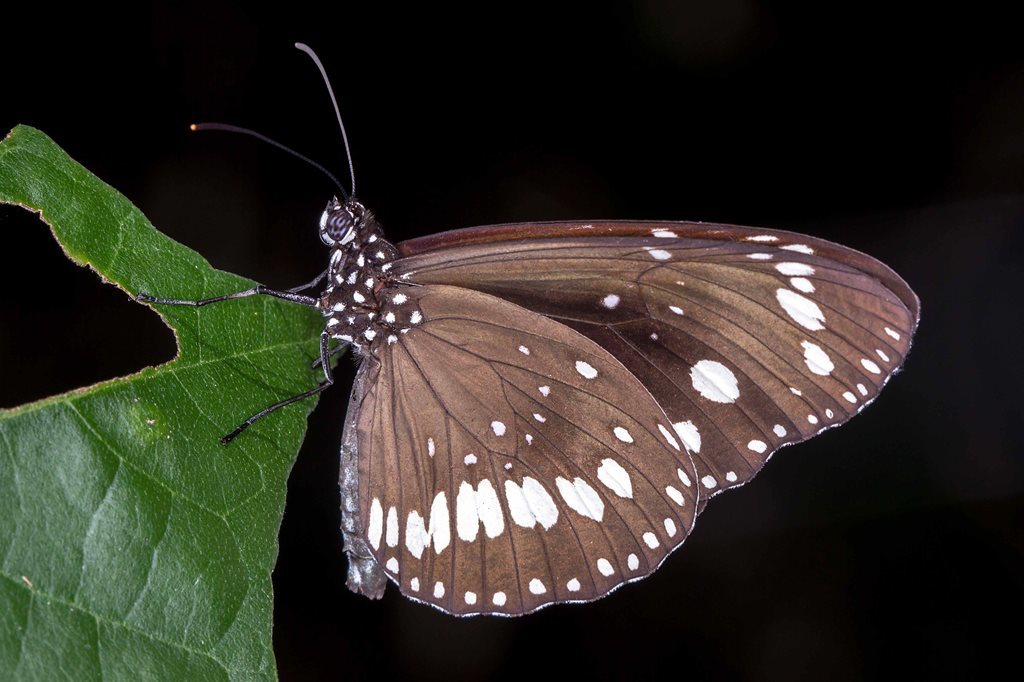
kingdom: Animalia
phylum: Arthropoda
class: Insecta
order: Lepidoptera
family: Nymphalidae
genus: Euploea
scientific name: Euploea core
